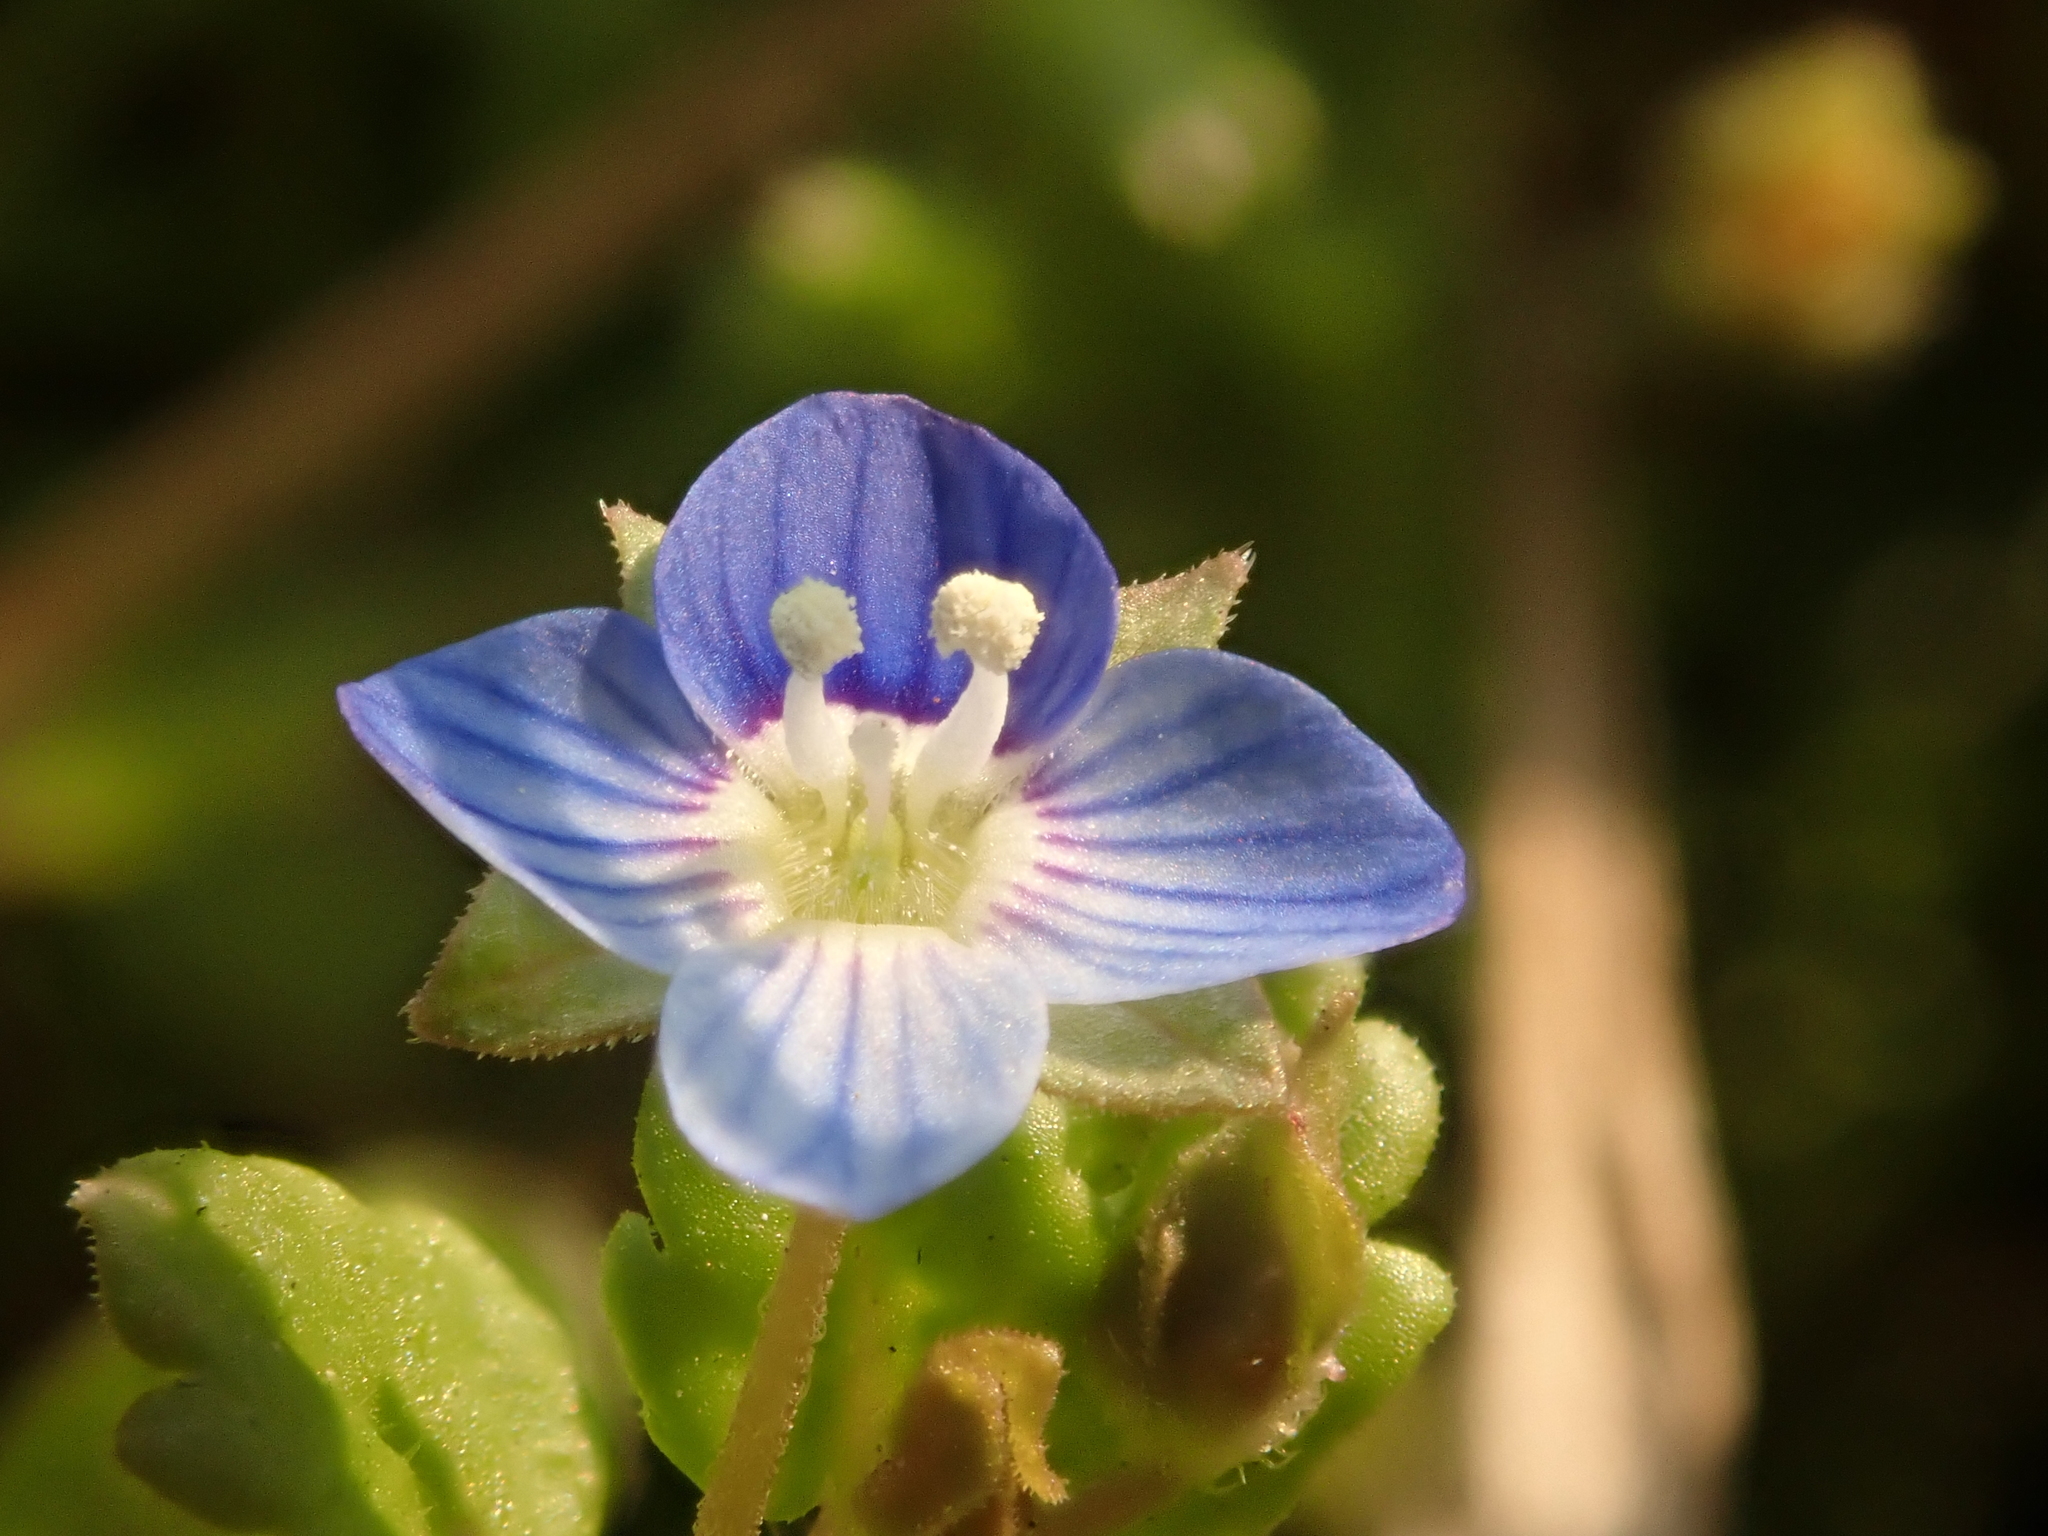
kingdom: Plantae
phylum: Tracheophyta
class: Magnoliopsida
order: Lamiales
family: Plantaginaceae
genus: Veronica
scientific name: Veronica persica
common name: Common field-speedwell
